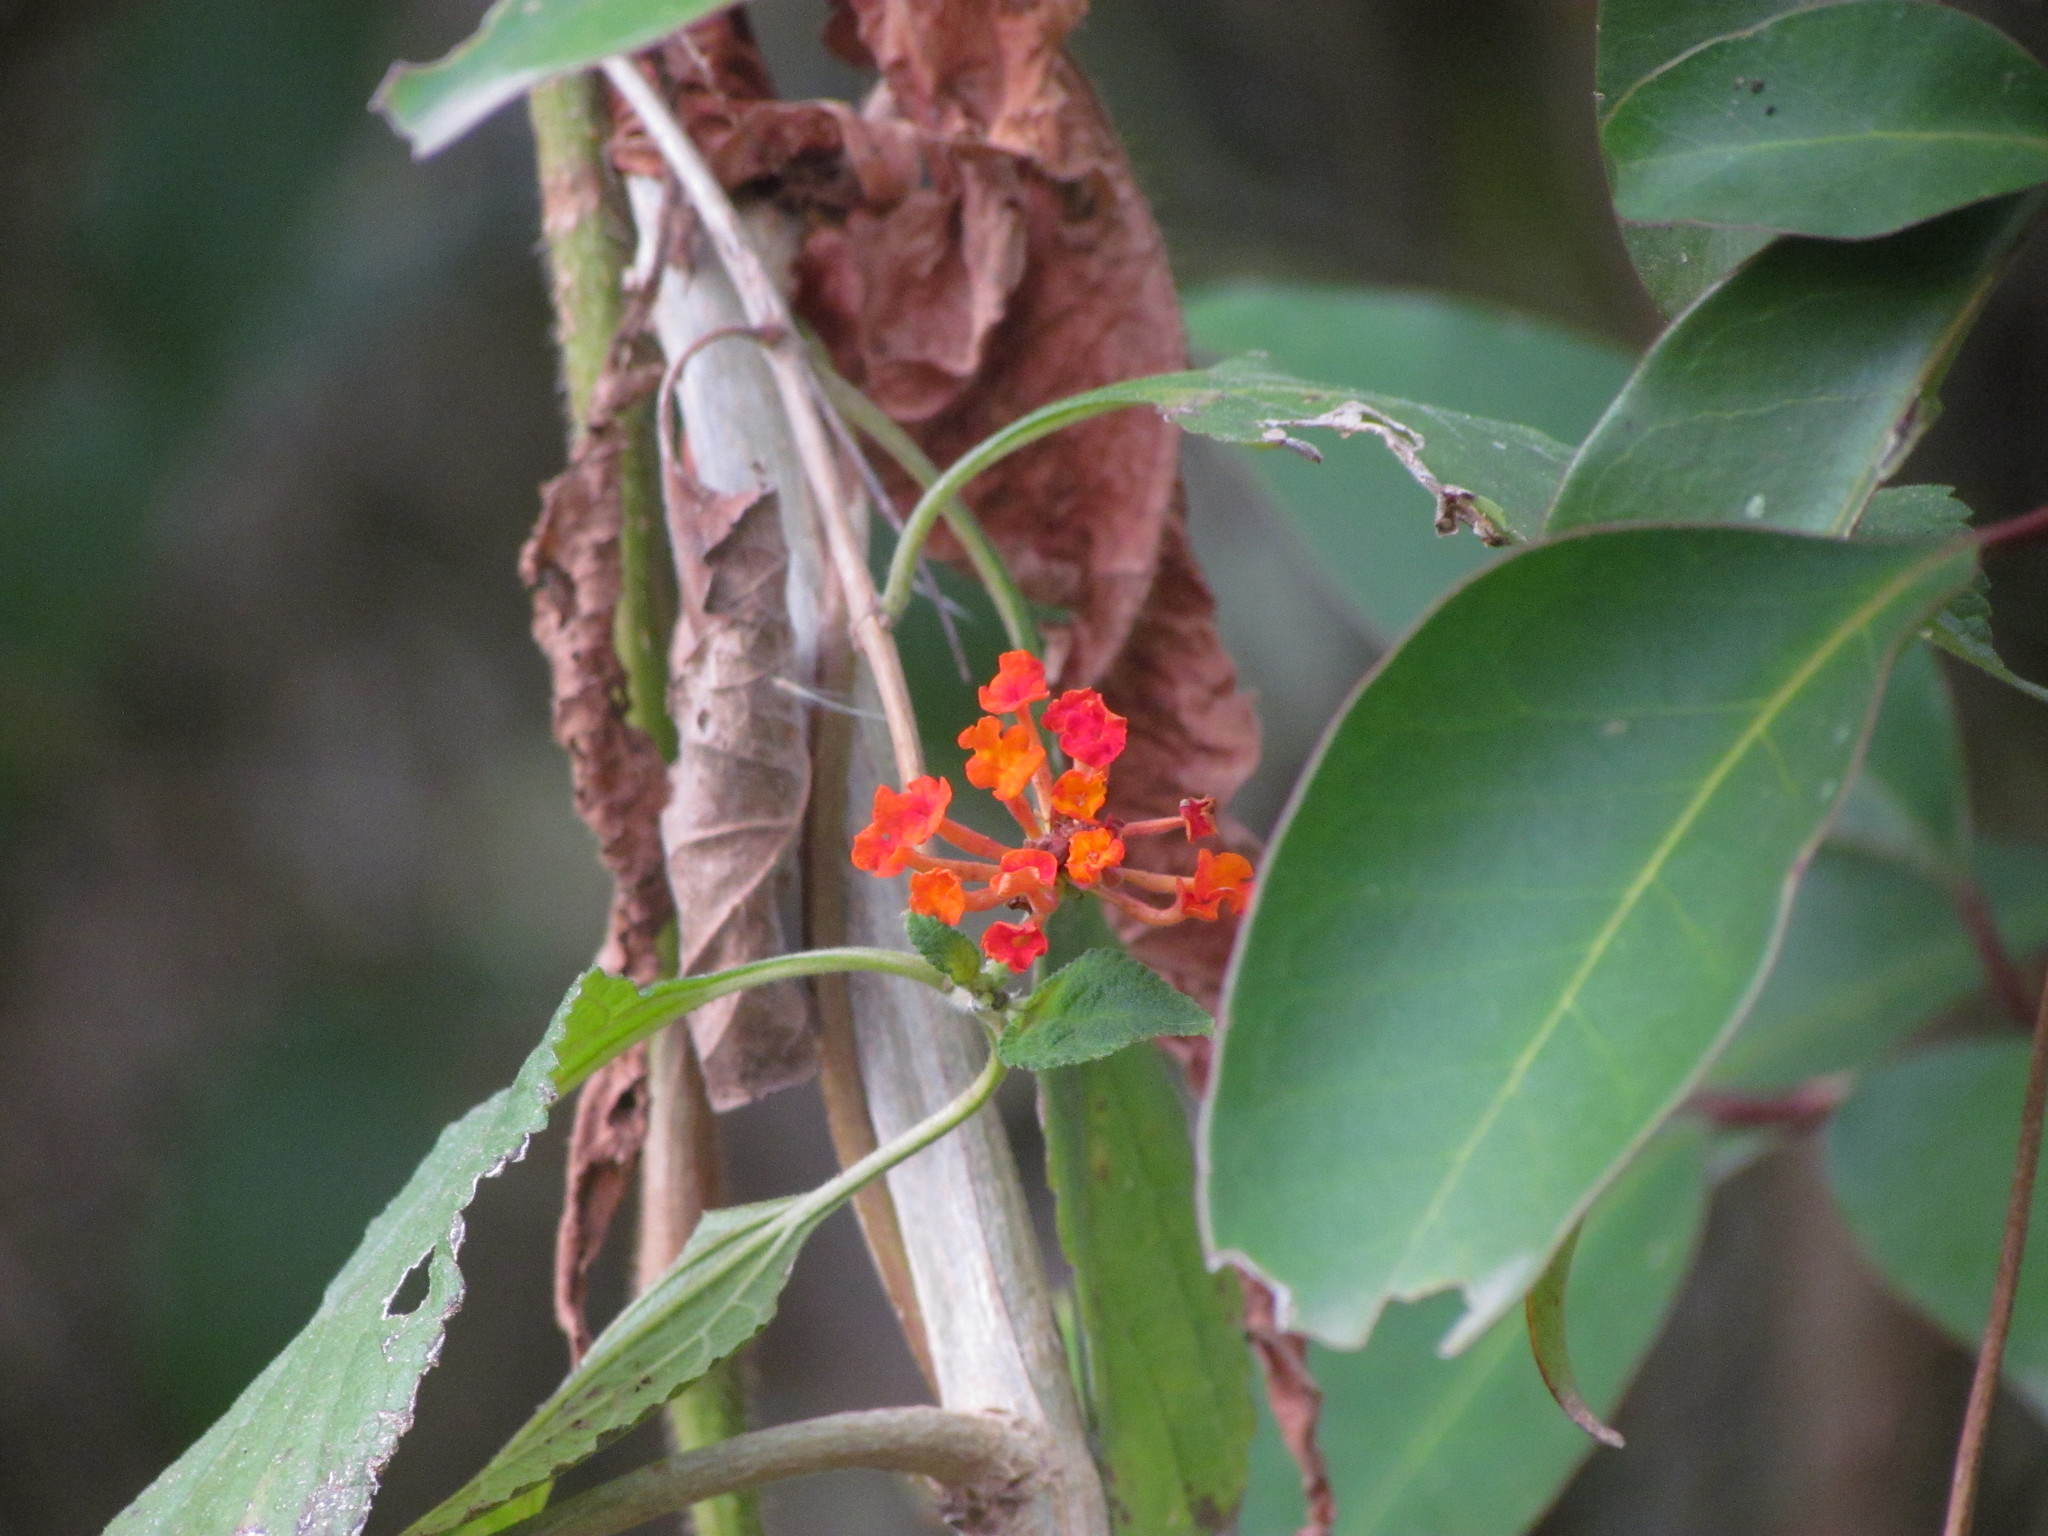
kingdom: Plantae
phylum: Tracheophyta
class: Magnoliopsida
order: Lamiales
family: Verbenaceae
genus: Lantana
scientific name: Lantana camara
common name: Lantana
